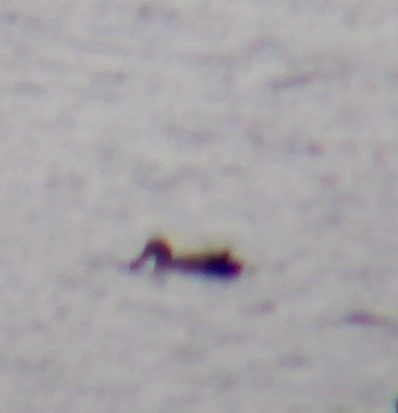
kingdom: Animalia
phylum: Chordata
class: Aves
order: Anseriformes
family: Anatidae
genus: Spatula
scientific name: Spatula clypeata
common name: Northern shoveler
